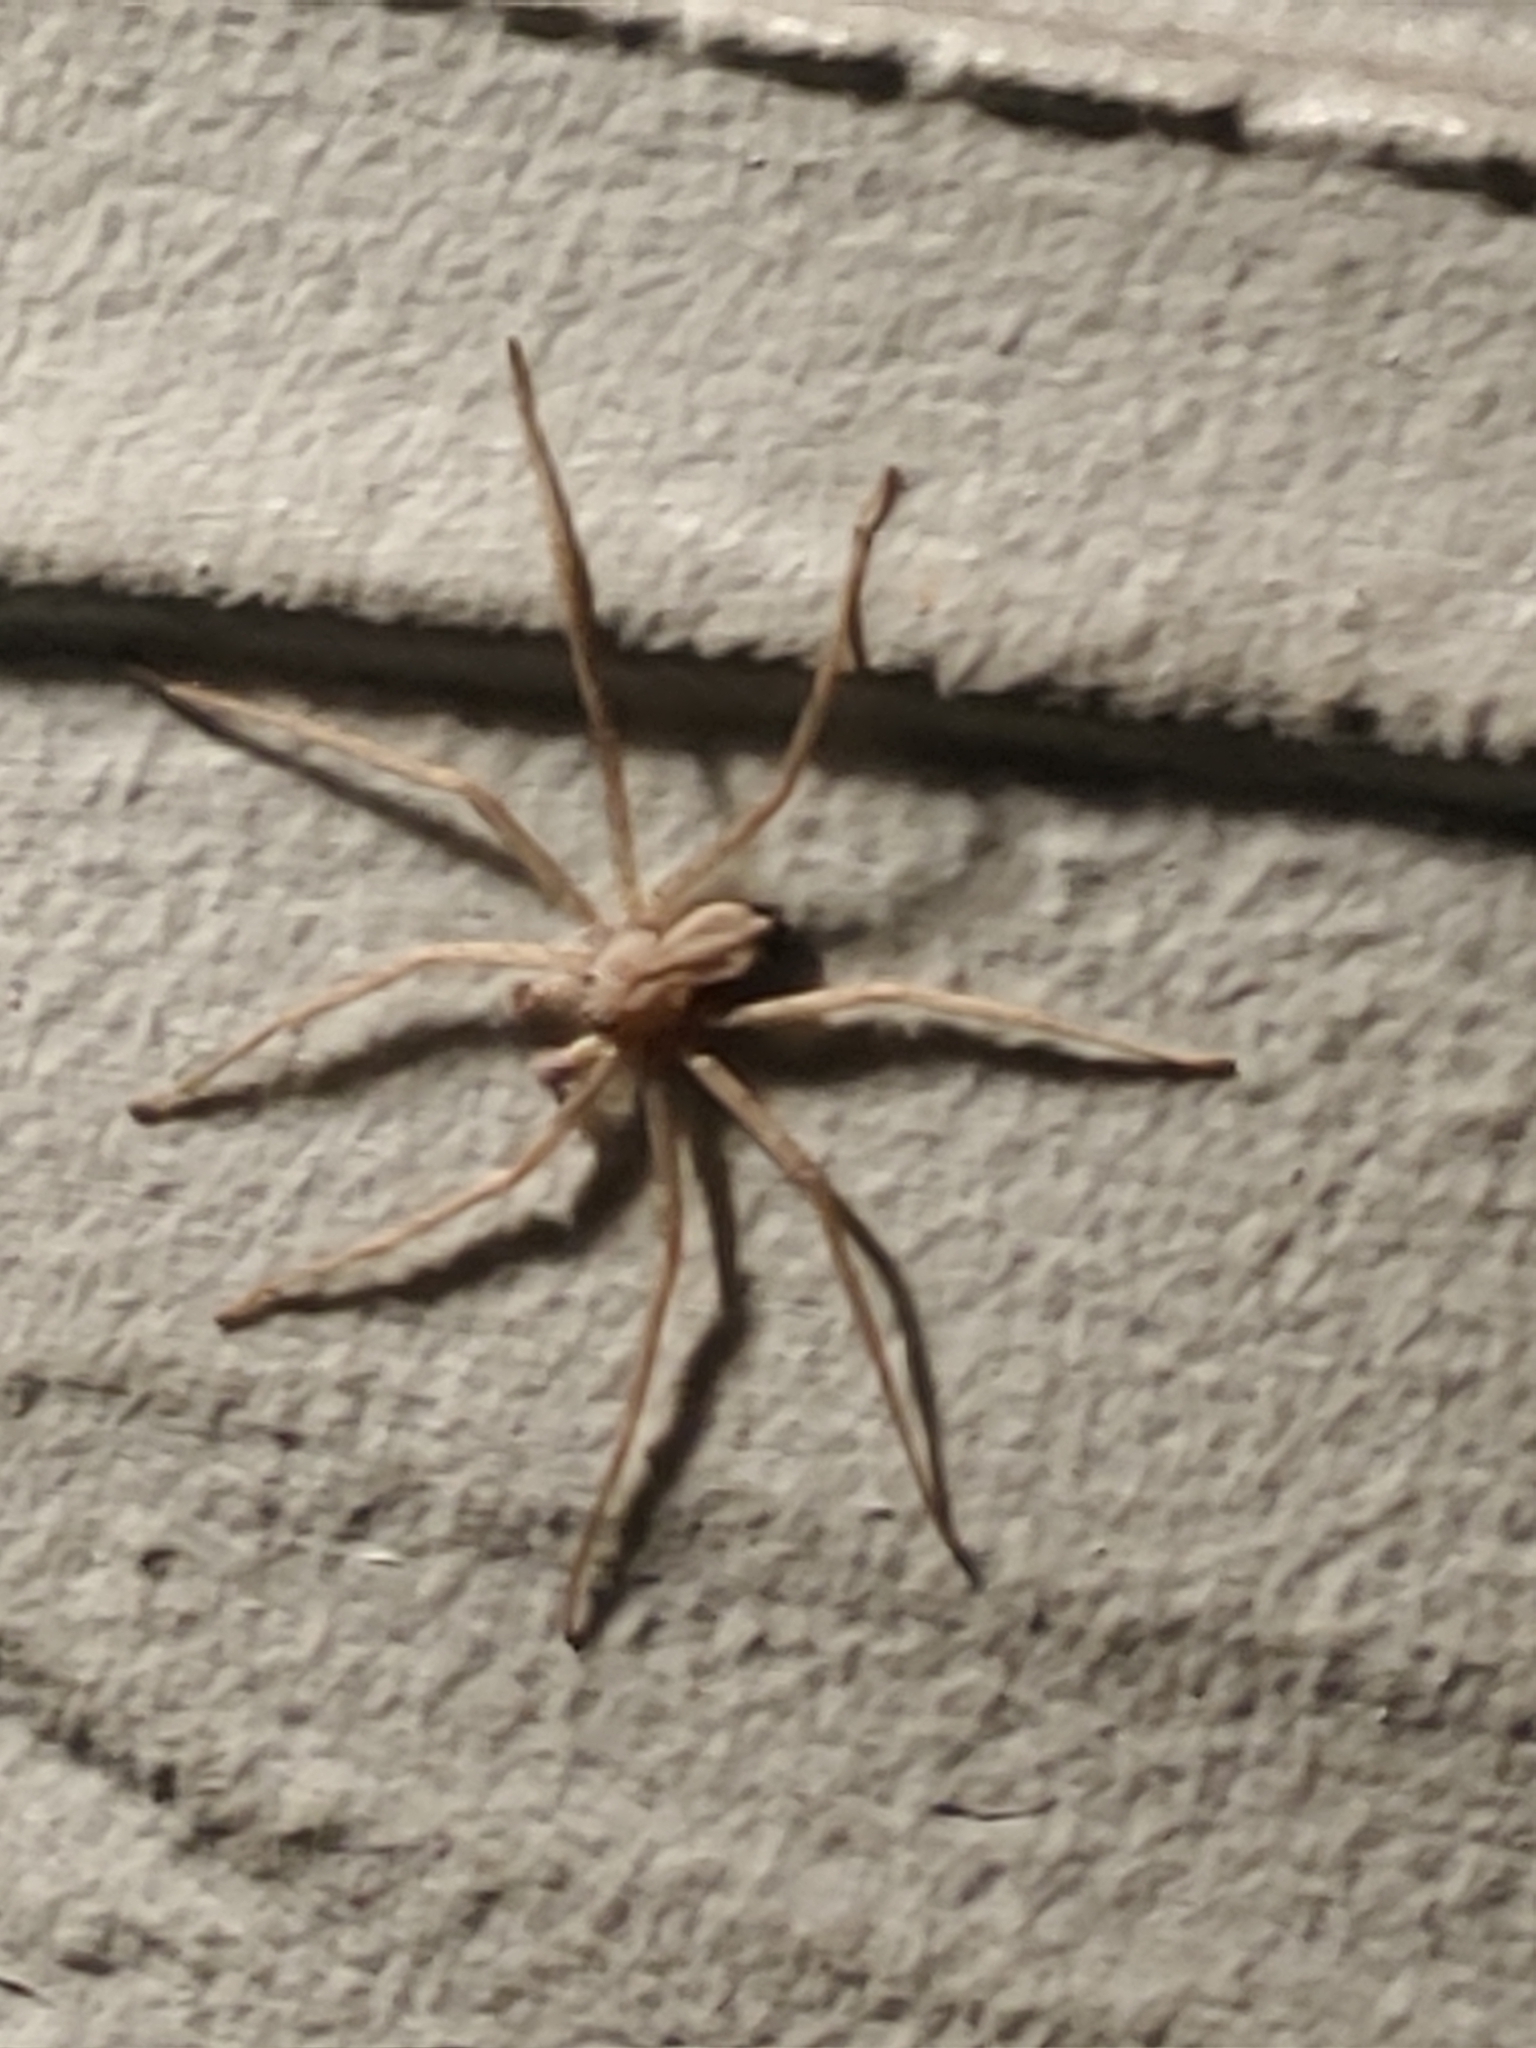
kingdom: Animalia
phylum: Arthropoda
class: Arachnida
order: Araneae
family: Selenopidae
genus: Selenops
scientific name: Selenops submaculosus
